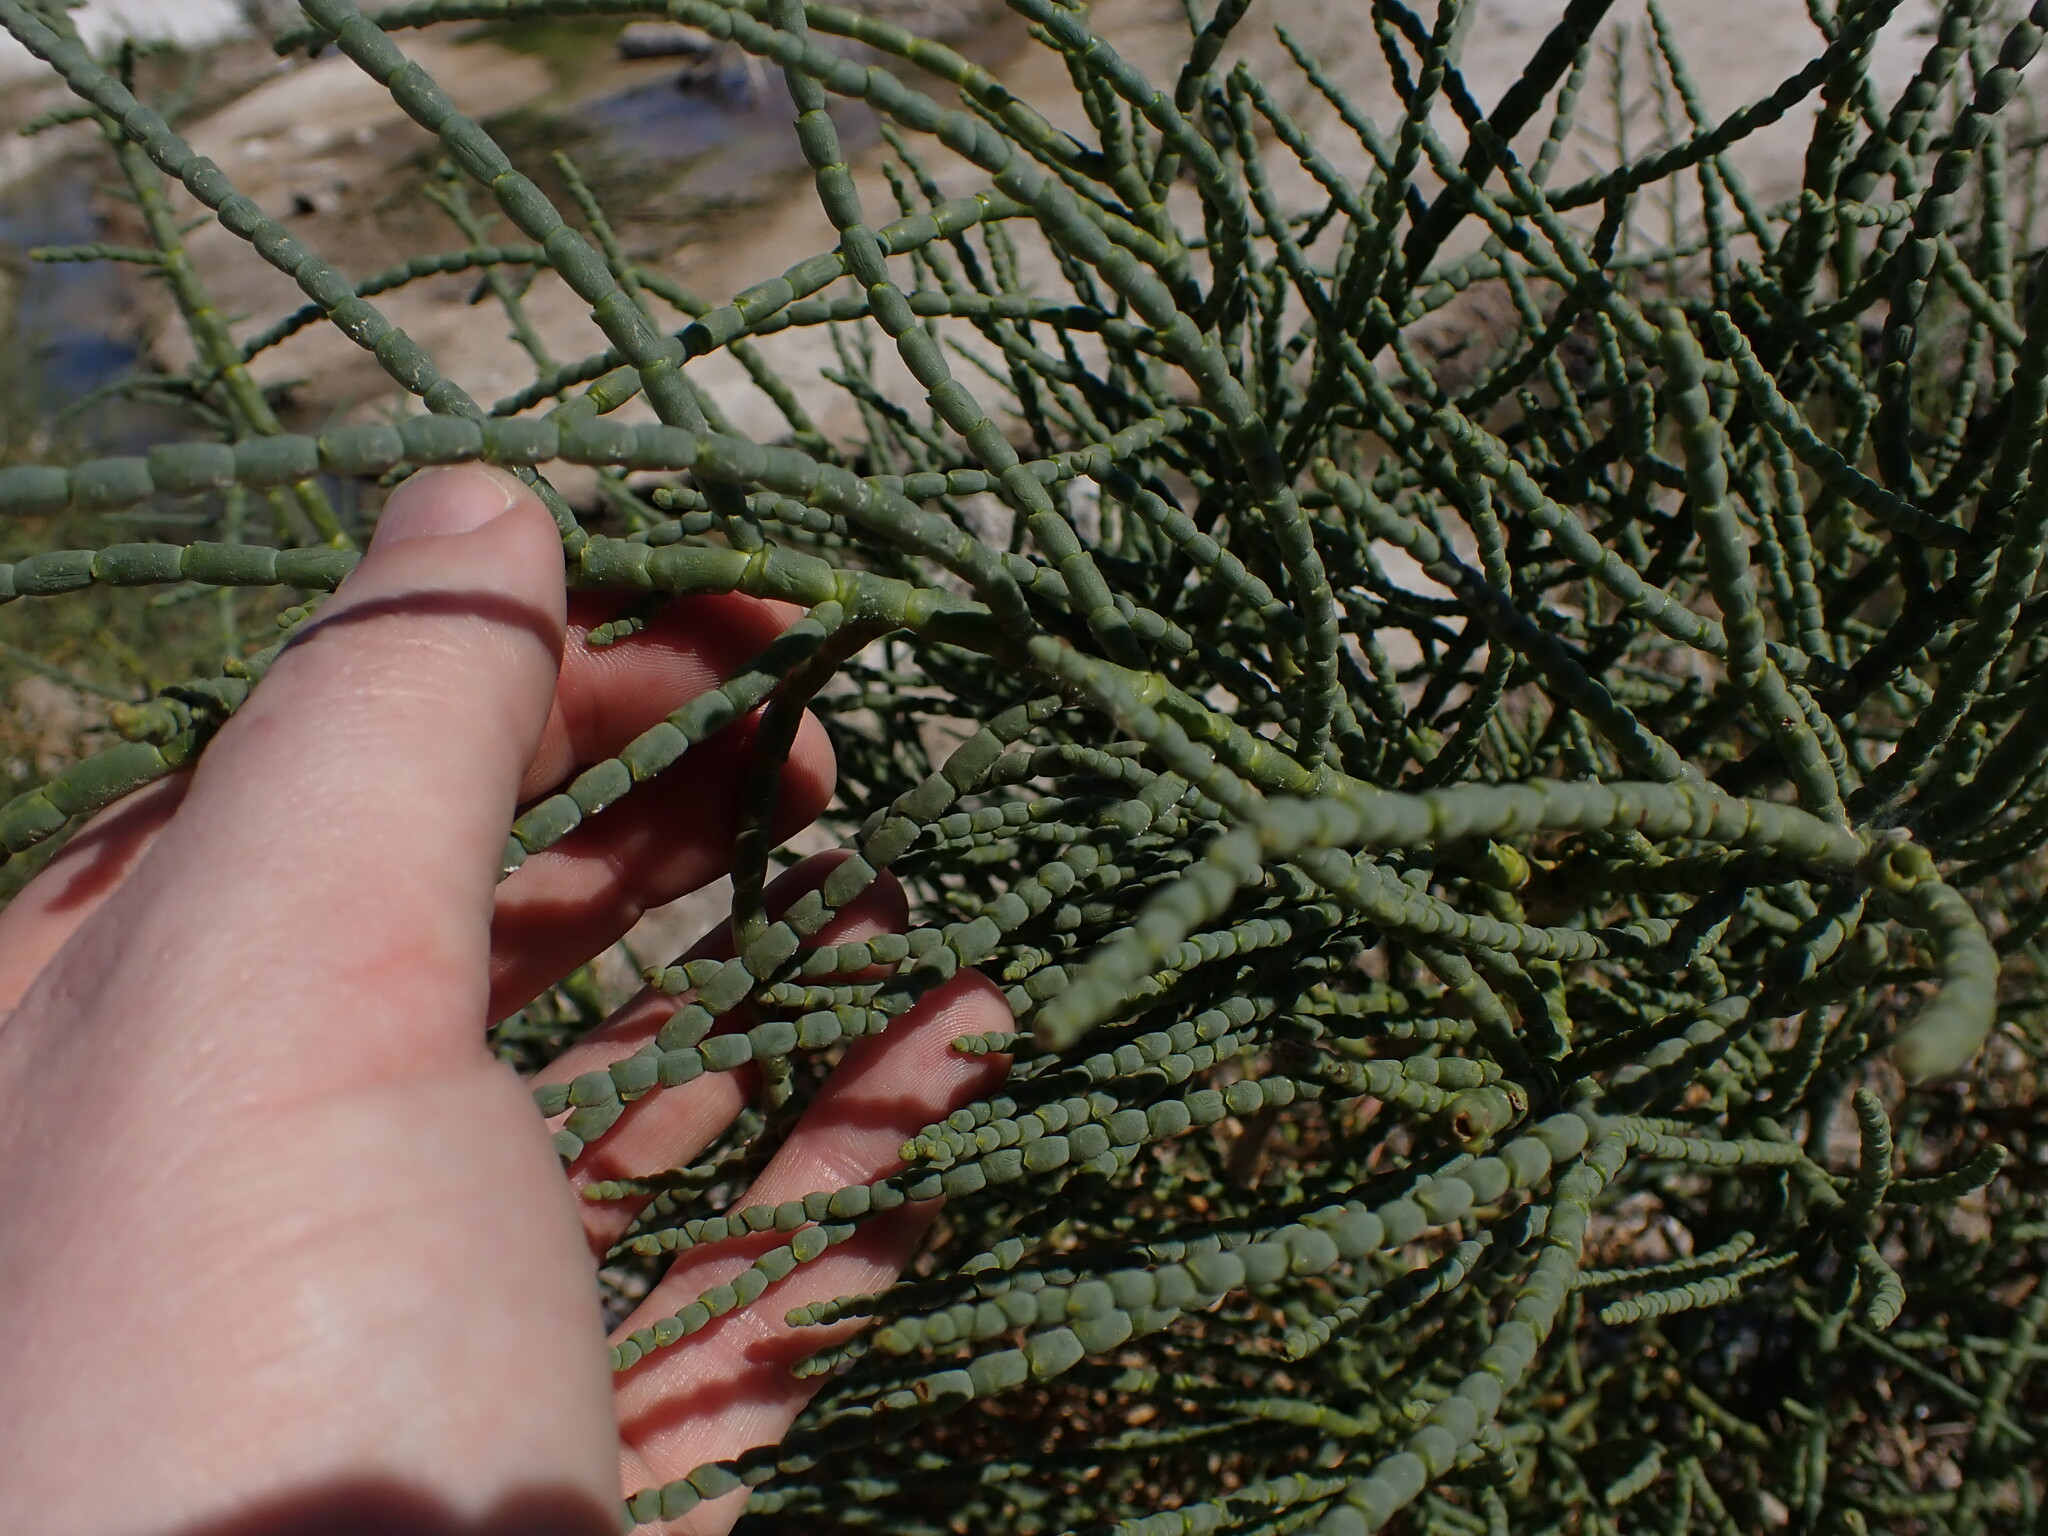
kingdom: Plantae
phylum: Tracheophyta
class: Magnoliopsida
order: Caryophyllales
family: Amaranthaceae
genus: Allenrolfea
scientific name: Allenrolfea occidentalis
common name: Iodine-bush
